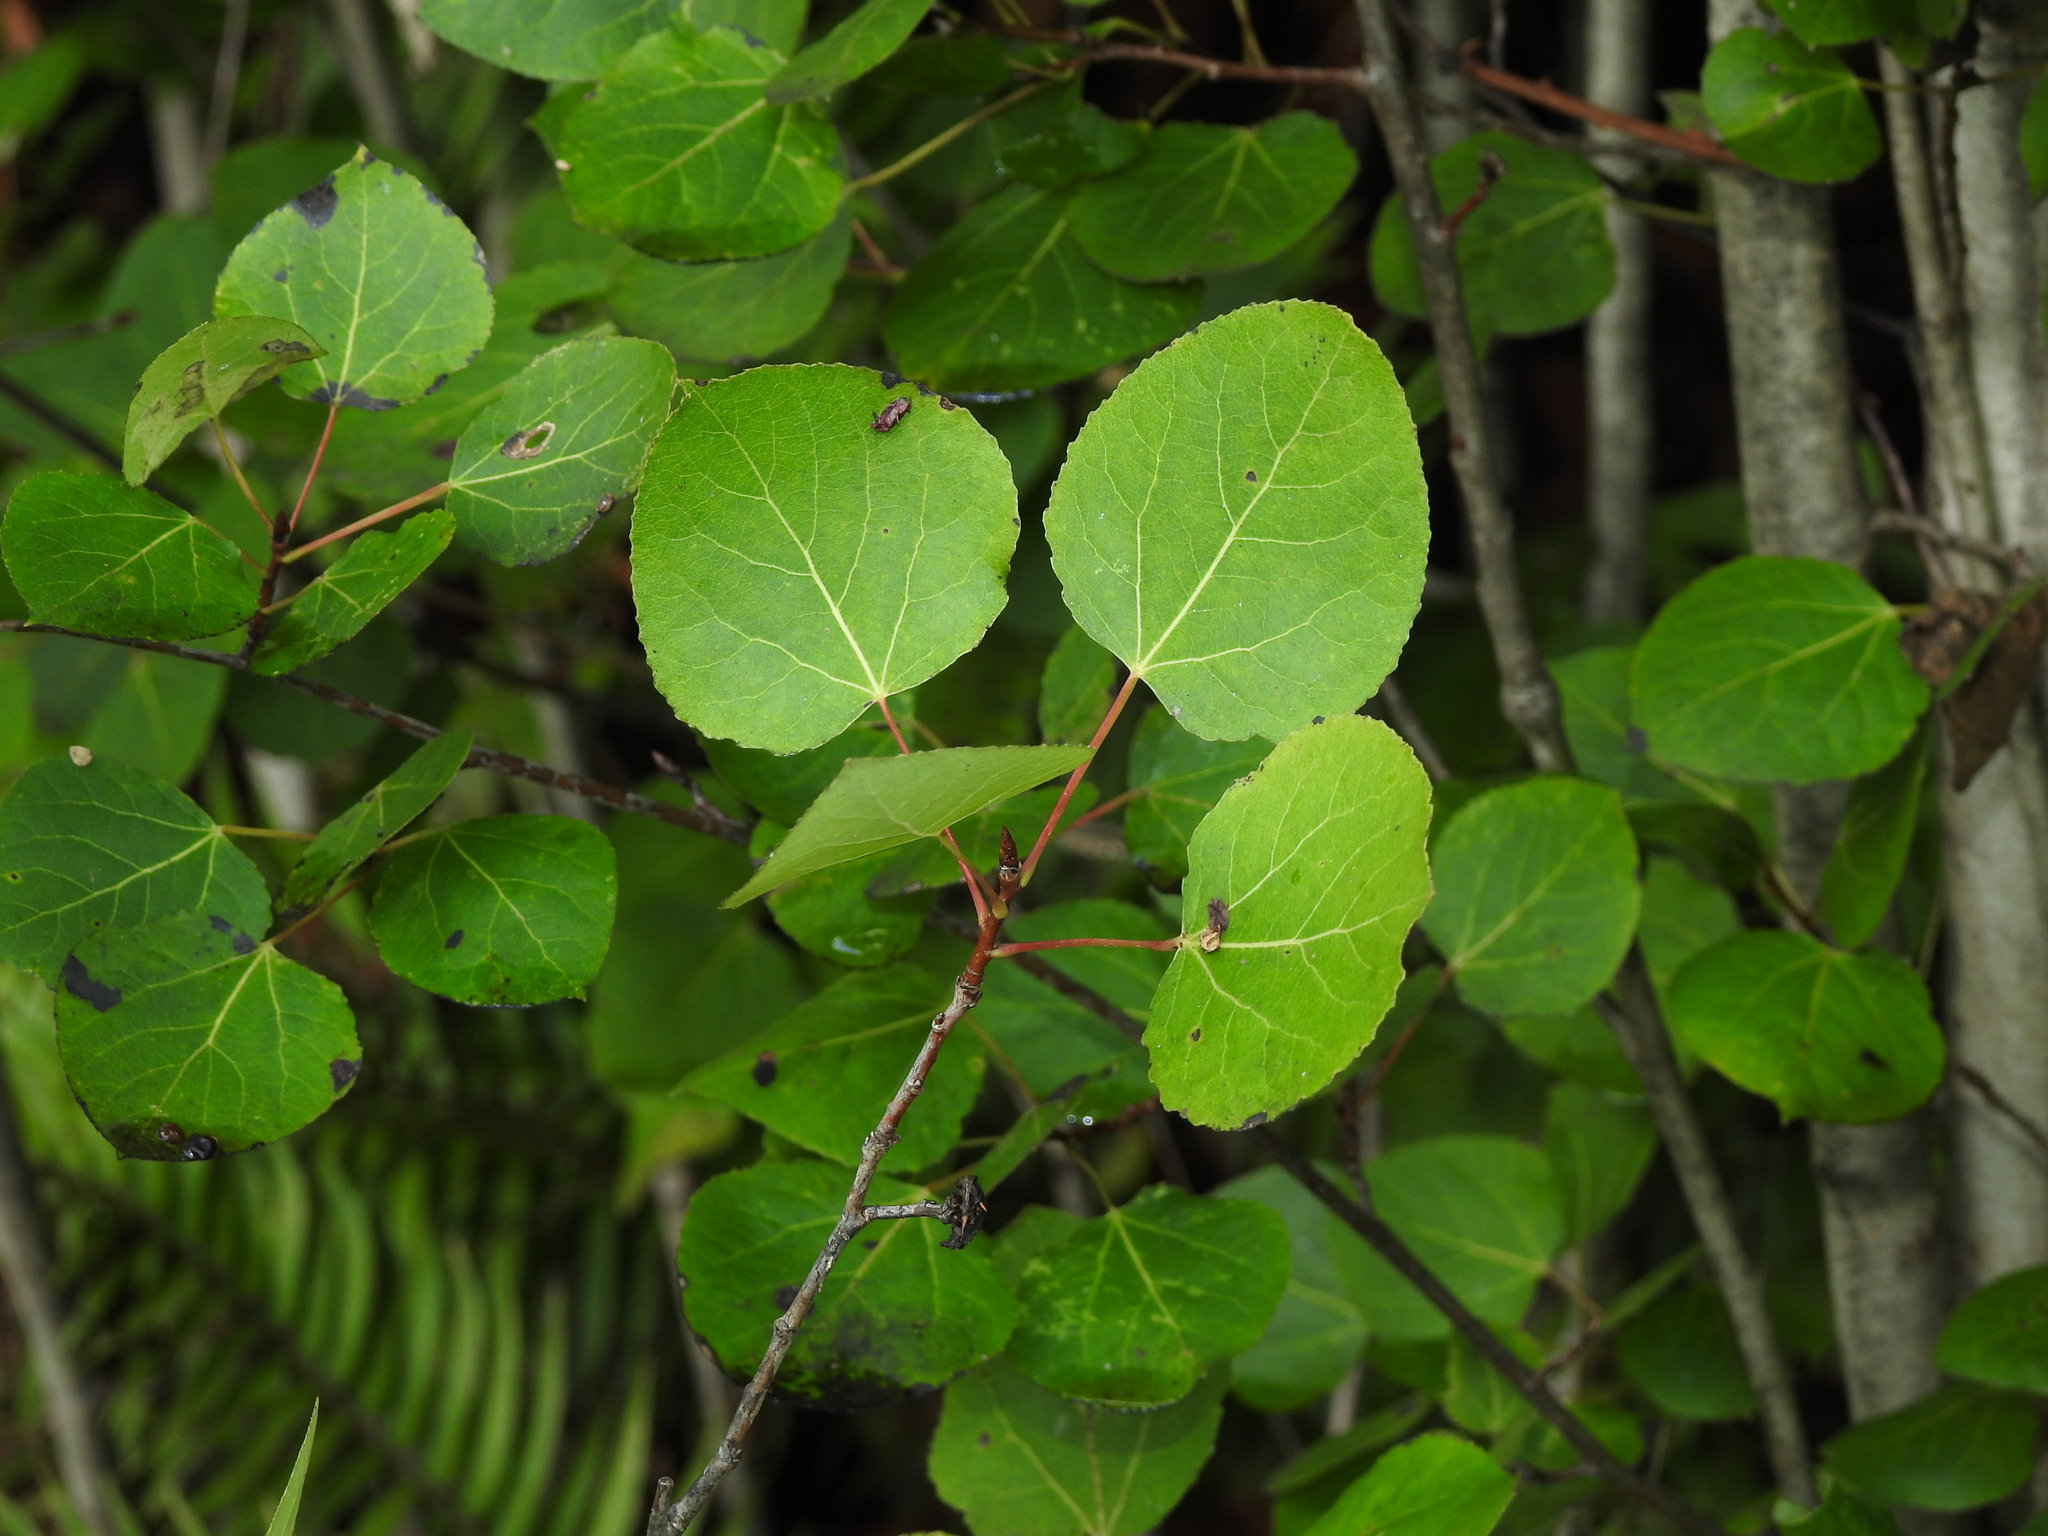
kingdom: Plantae
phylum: Tracheophyta
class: Magnoliopsida
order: Malpighiales
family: Salicaceae
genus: Populus
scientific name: Populus tremuloides
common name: Quaking aspen
